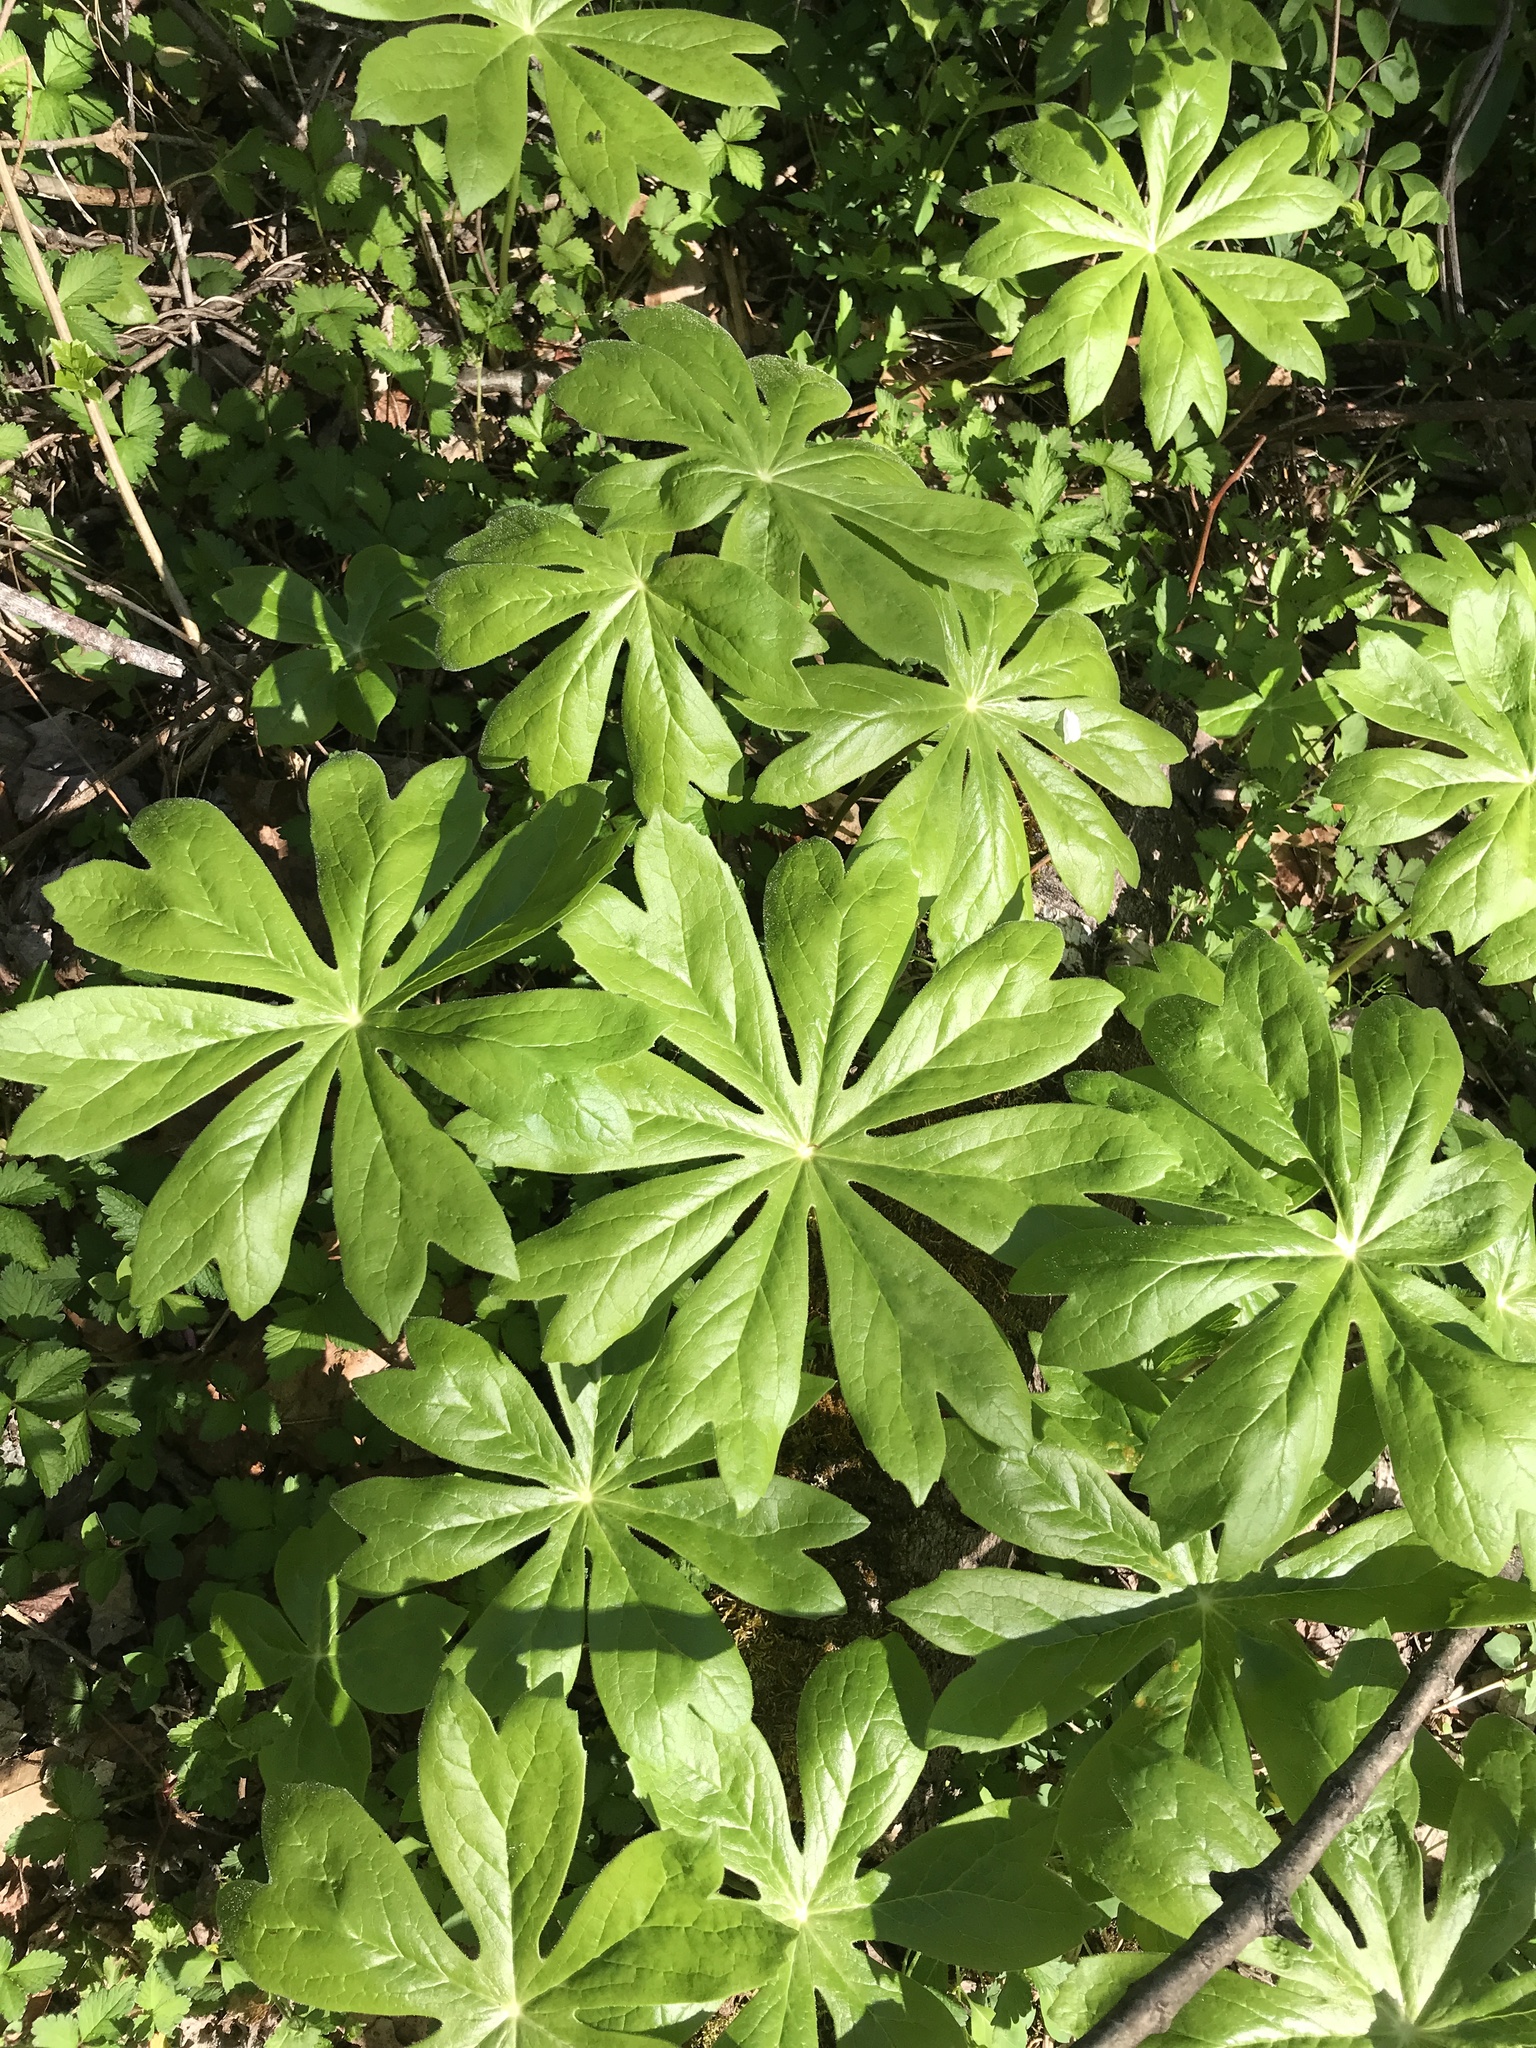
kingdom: Plantae
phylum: Tracheophyta
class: Magnoliopsida
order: Ranunculales
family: Berberidaceae
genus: Podophyllum
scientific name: Podophyllum peltatum
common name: Wild mandrake
